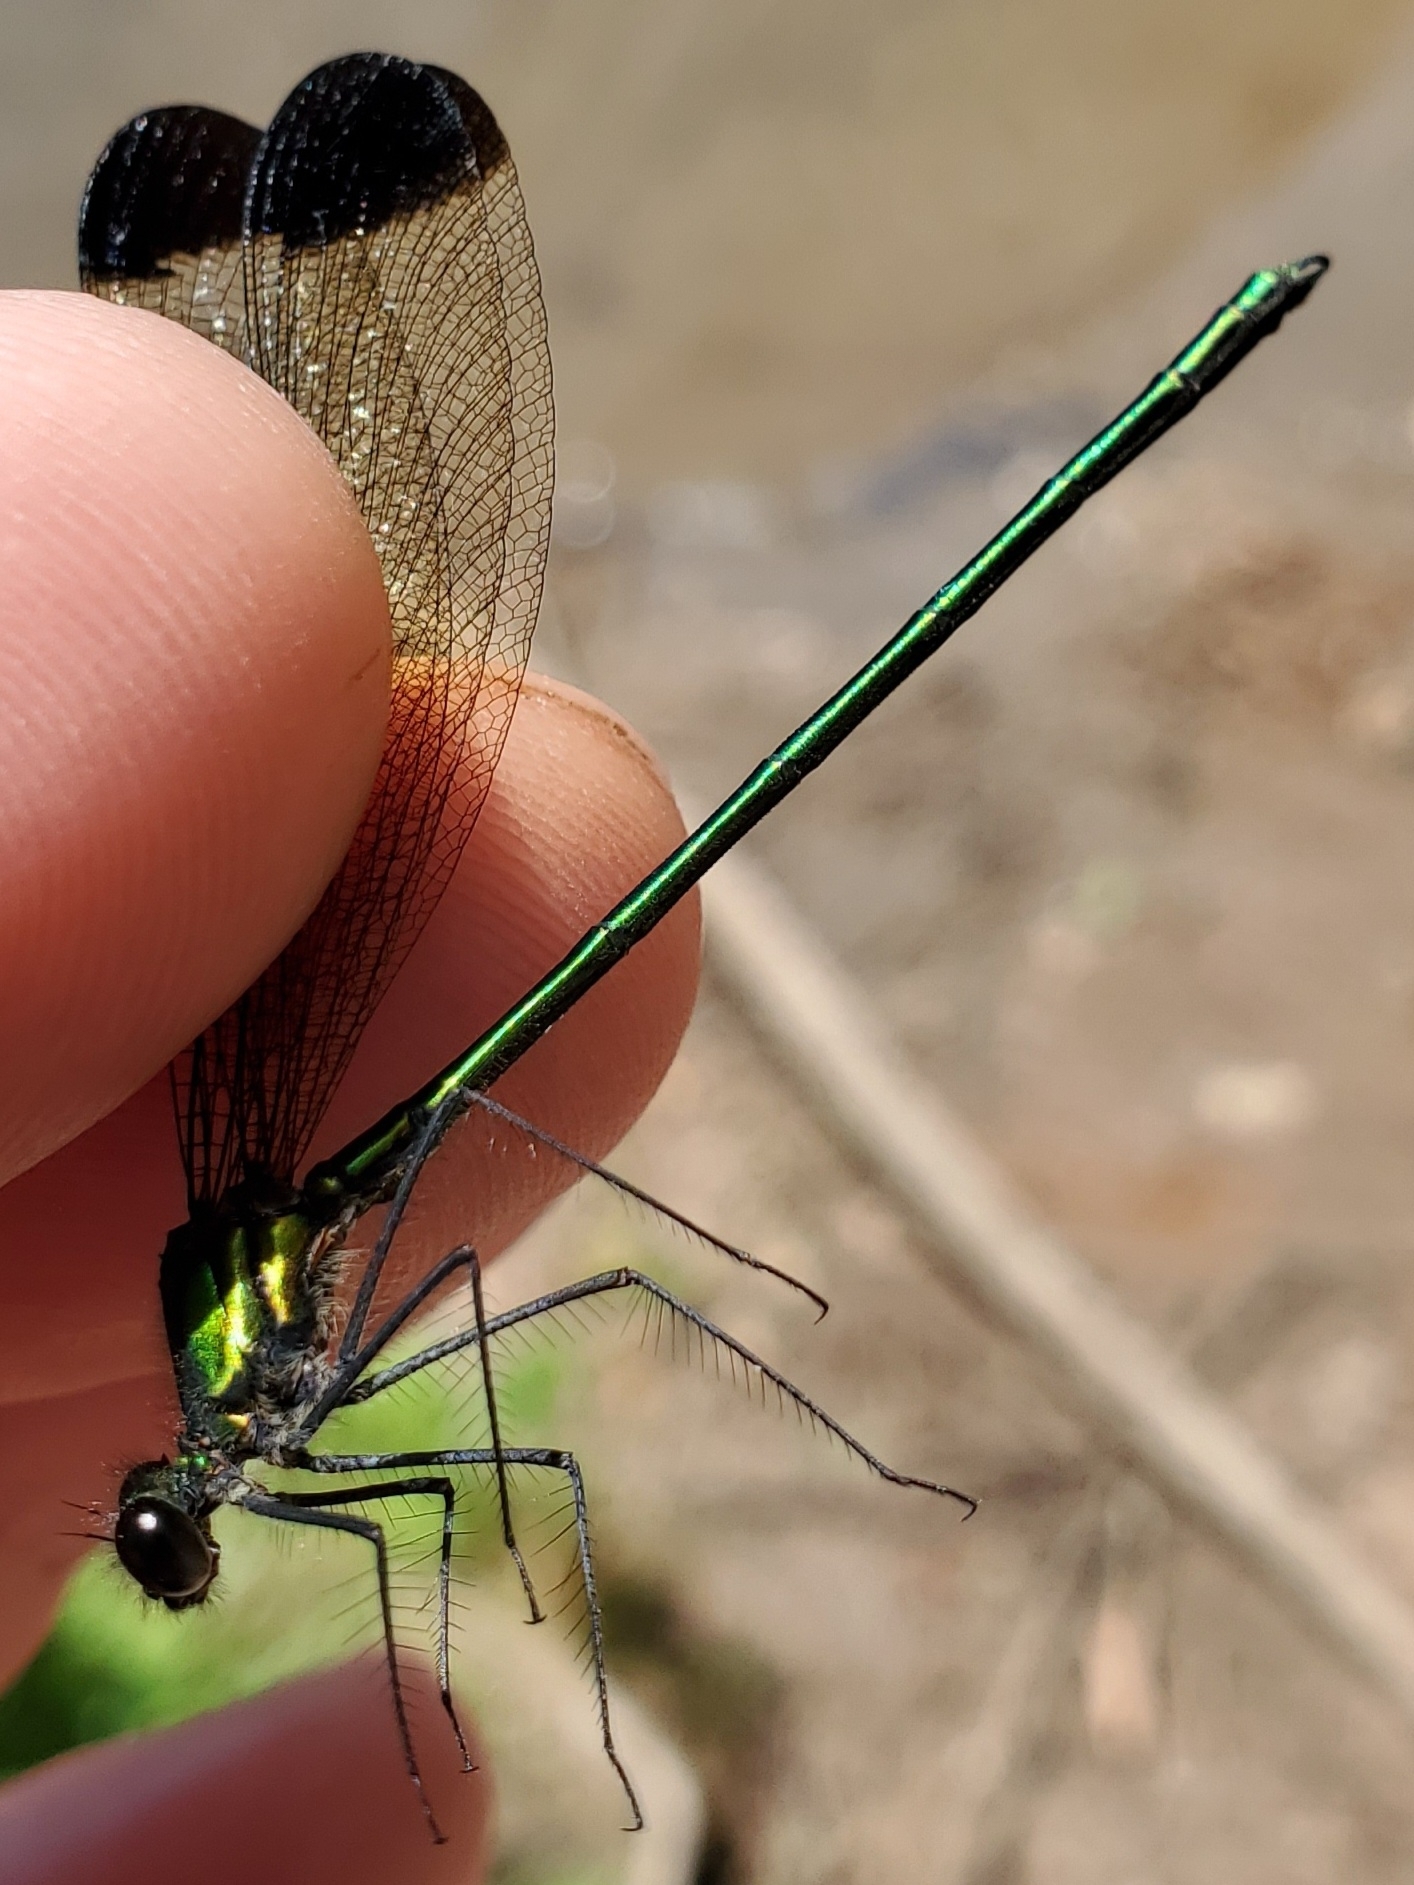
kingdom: Animalia
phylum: Arthropoda
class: Insecta
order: Odonata
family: Calopterygidae
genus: Calopteryx
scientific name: Calopteryx dimidiata
